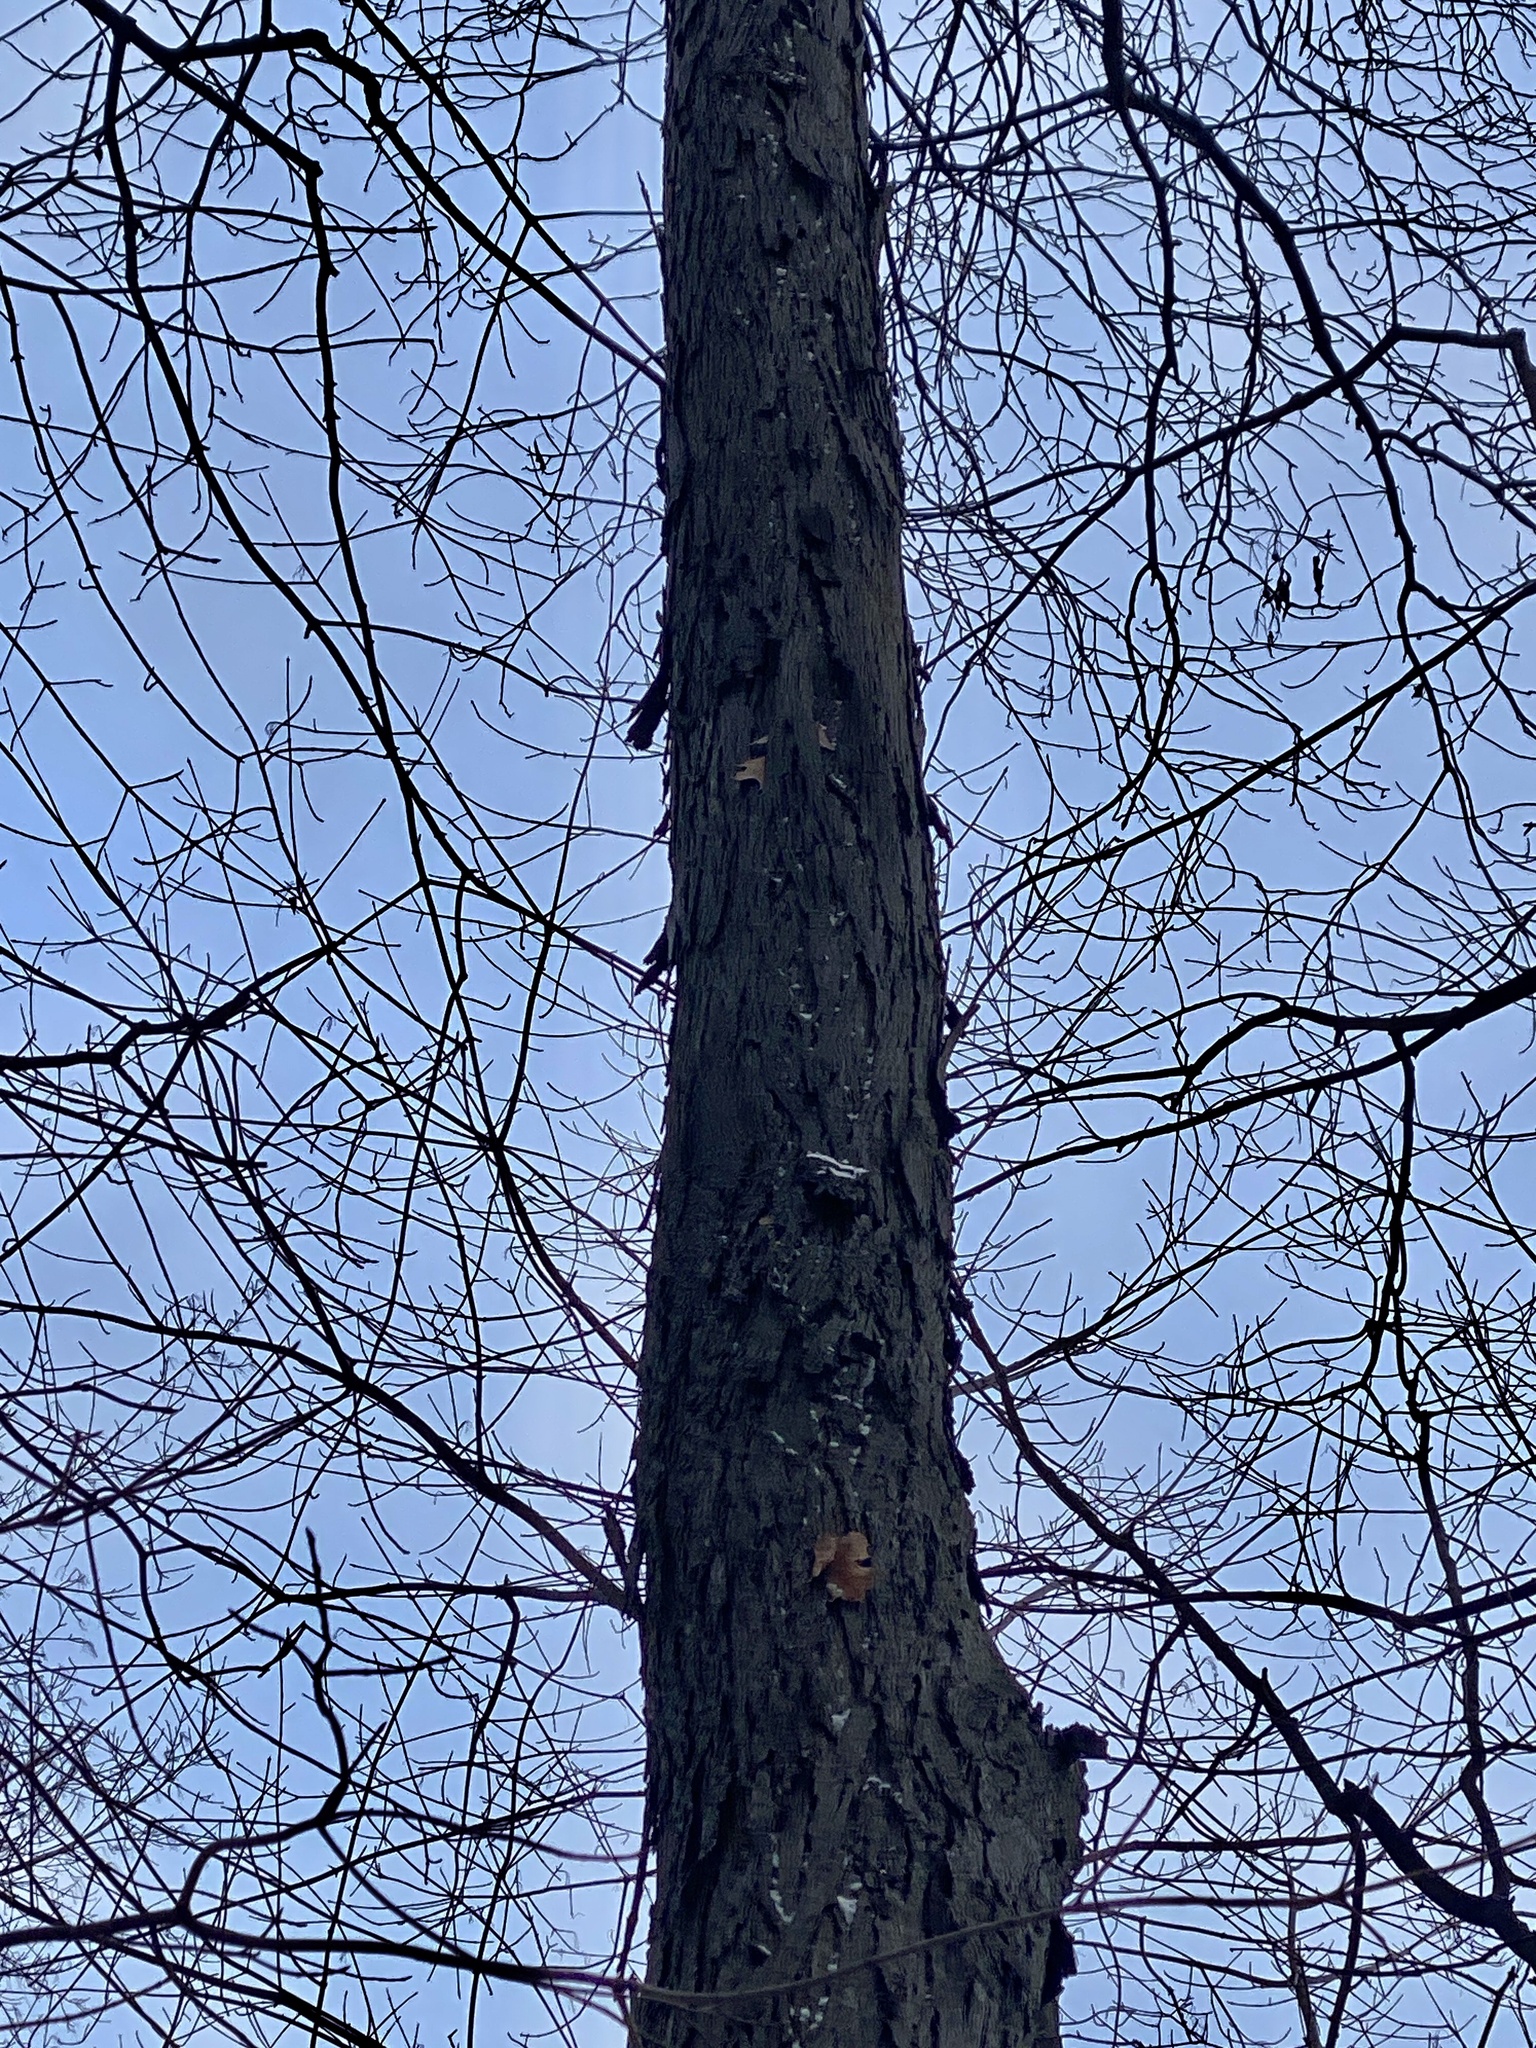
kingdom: Plantae
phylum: Tracheophyta
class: Magnoliopsida
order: Fagales
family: Juglandaceae
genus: Carya
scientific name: Carya ovata
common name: Shagbark hickory
